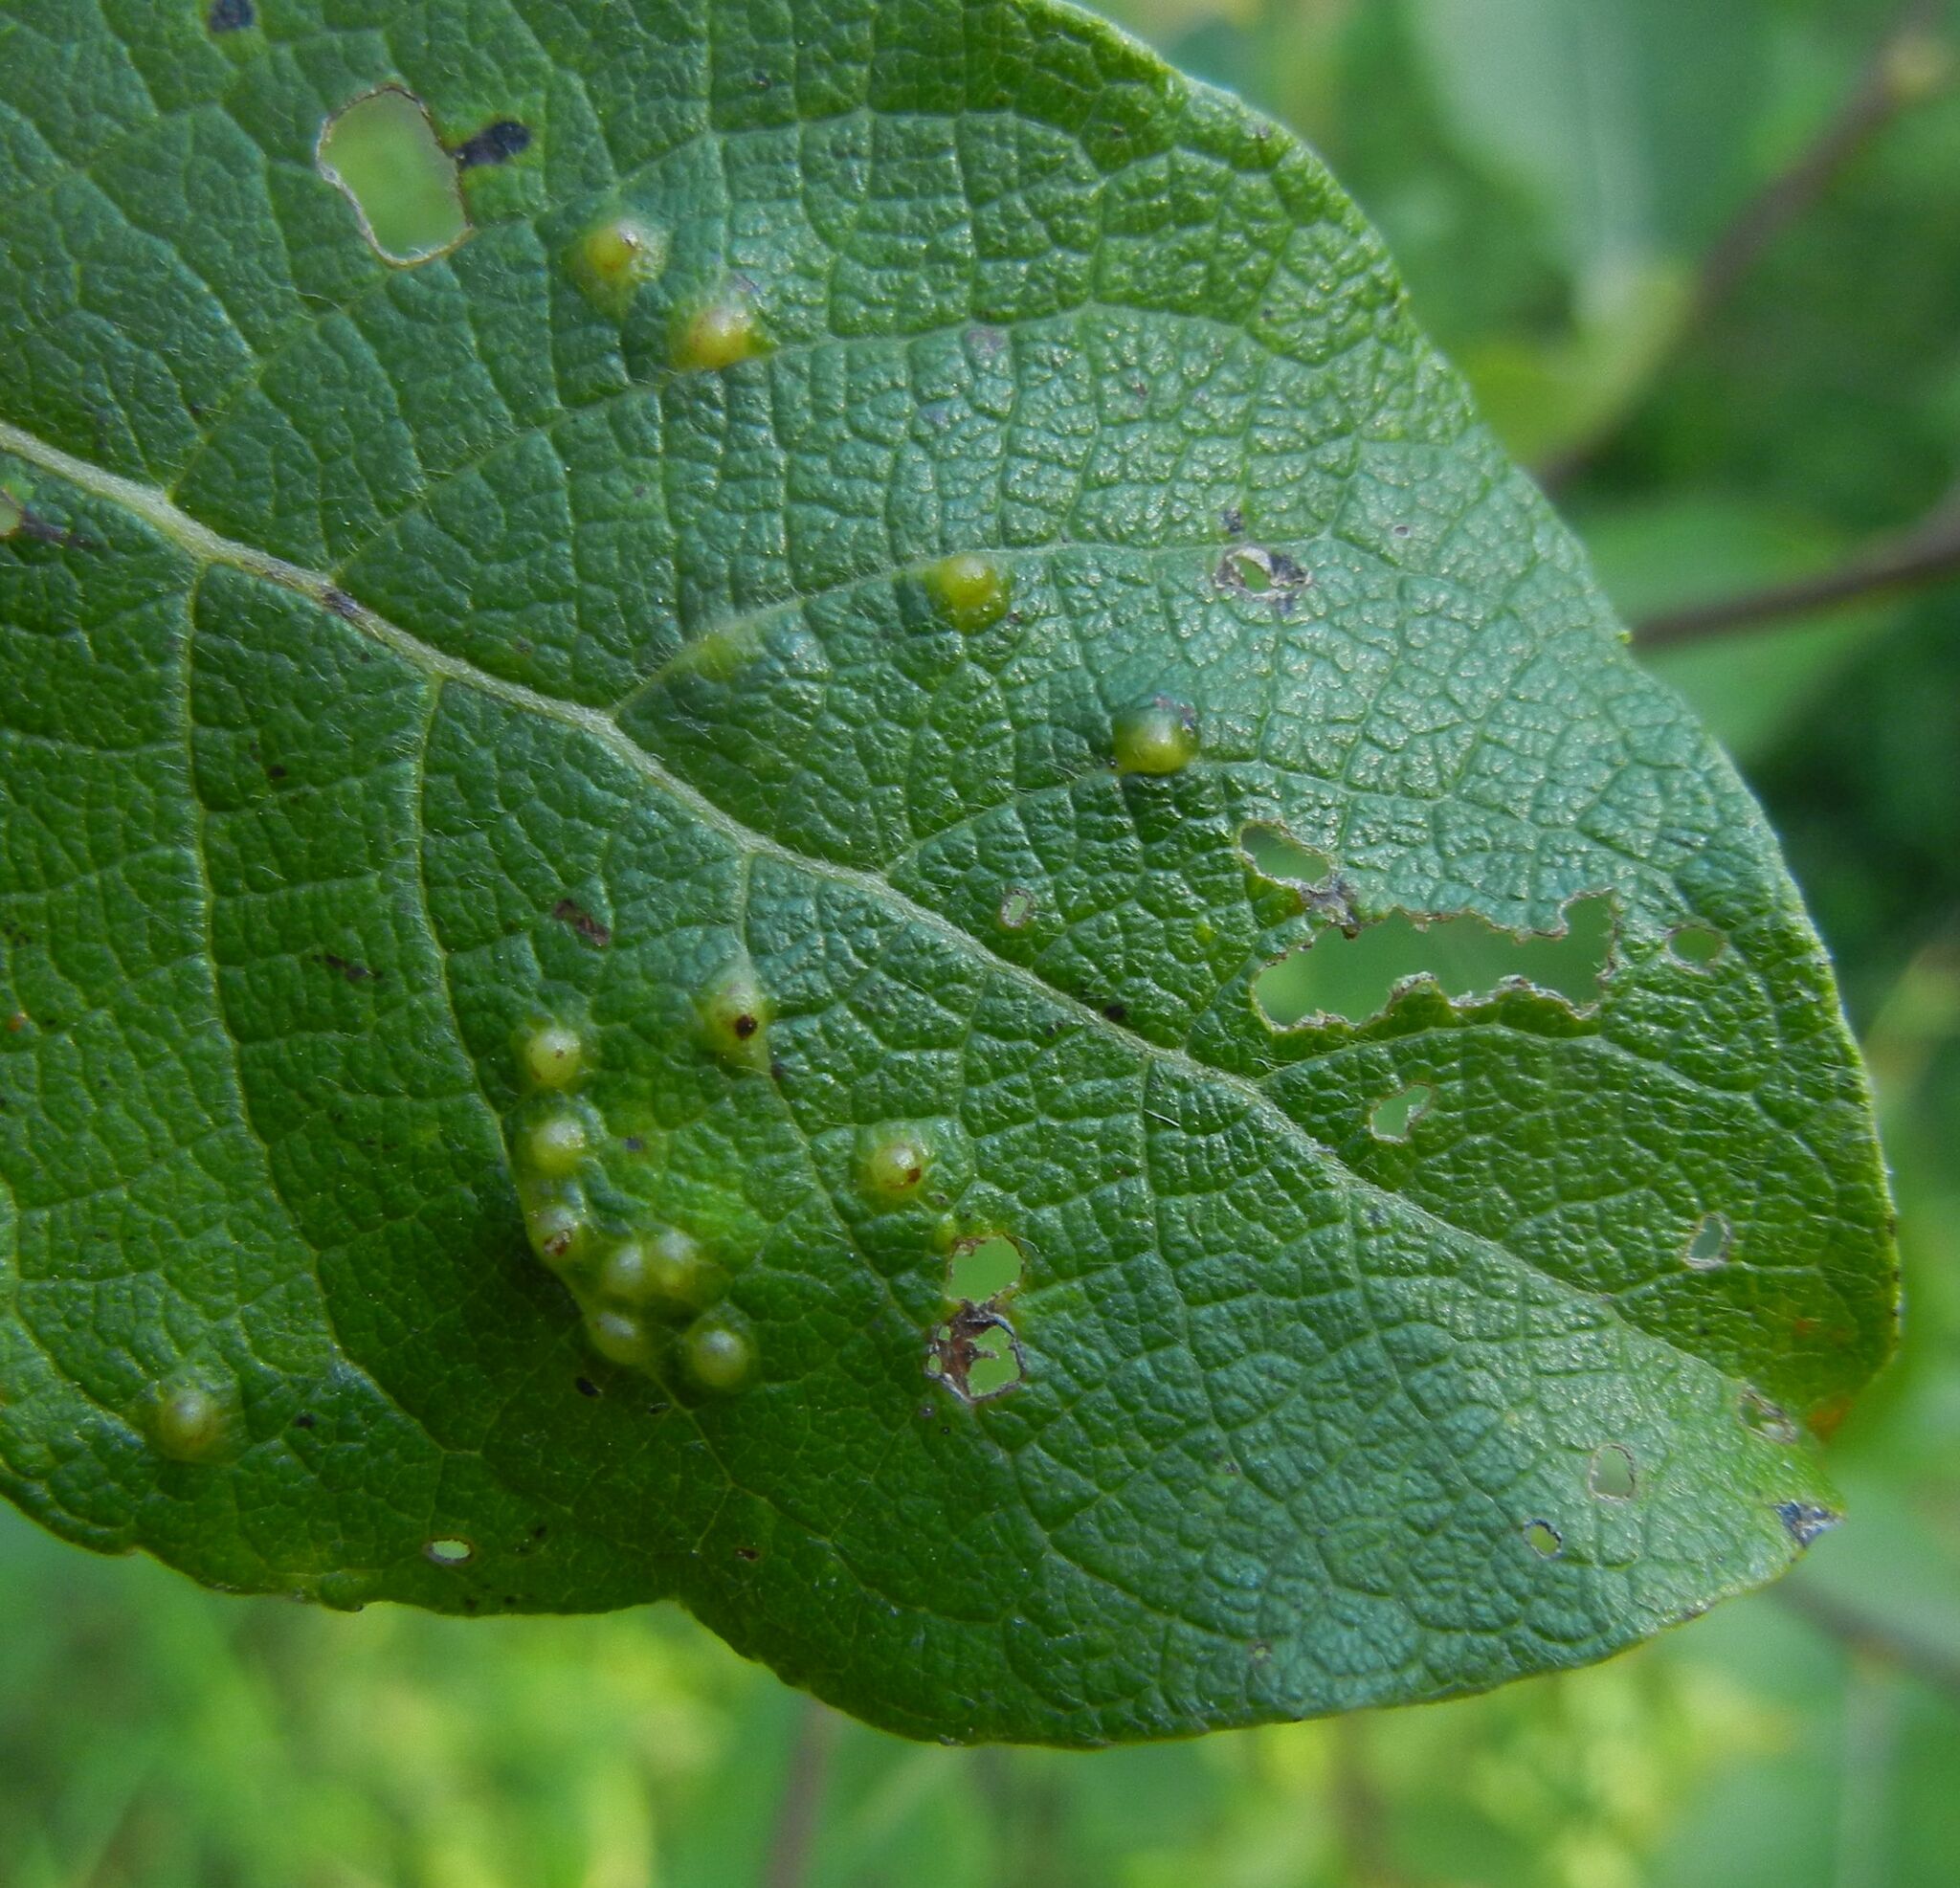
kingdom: Animalia
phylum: Arthropoda
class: Insecta
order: Diptera
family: Cecidomyiidae
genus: Iteomyia
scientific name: Iteomyia capreae
